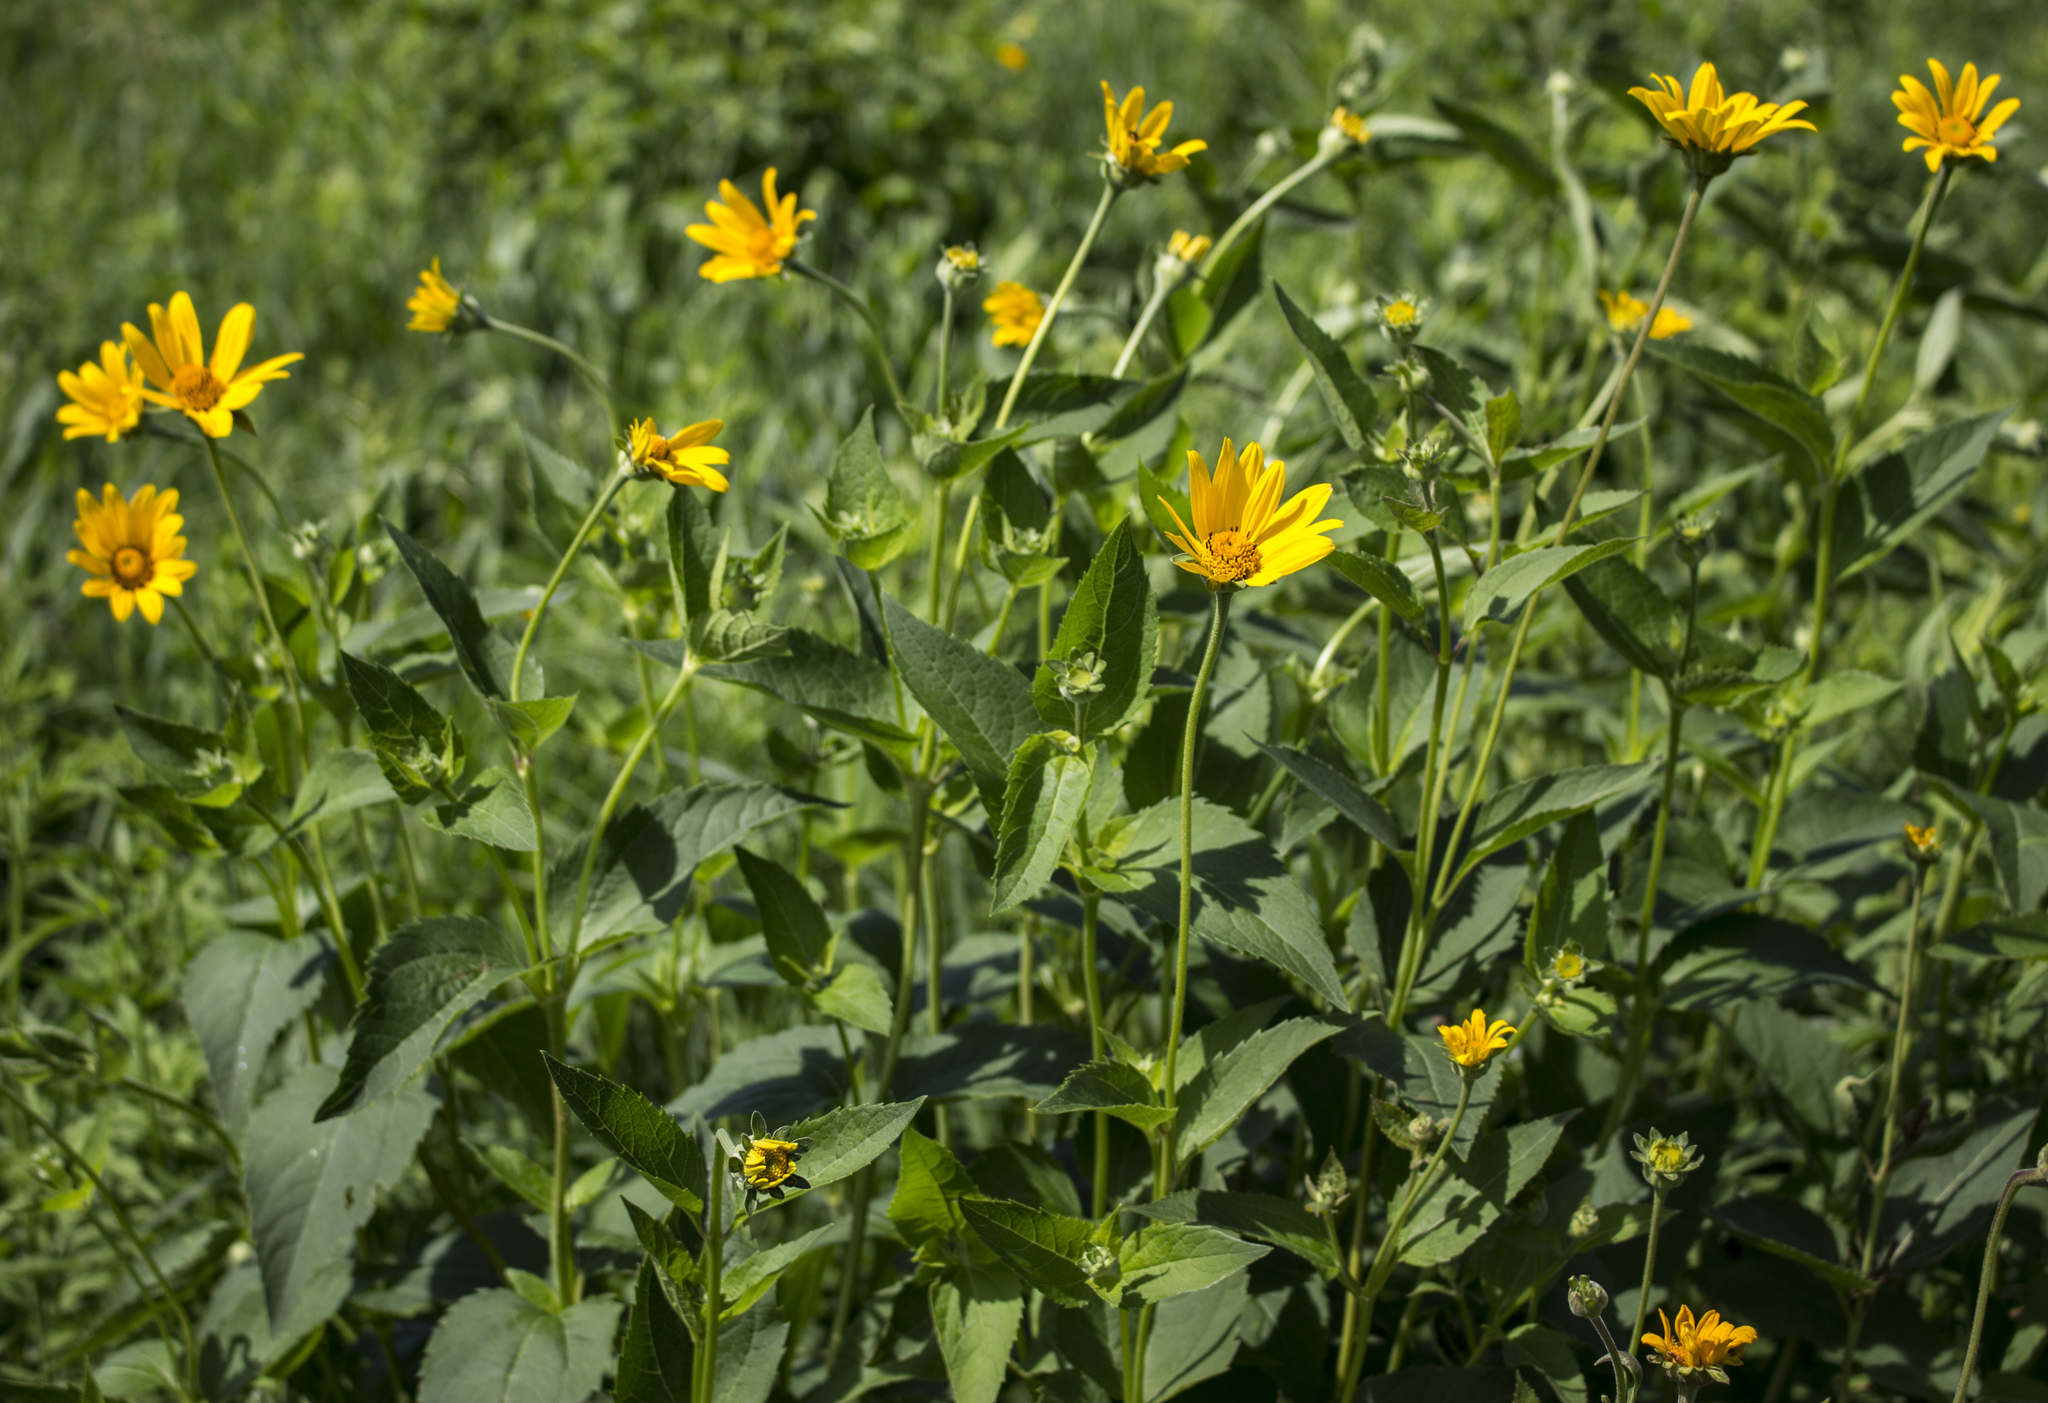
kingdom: Plantae
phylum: Tracheophyta
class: Magnoliopsida
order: Asterales
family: Asteraceae
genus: Heliopsis
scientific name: Heliopsis helianthoides
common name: False sunflower
